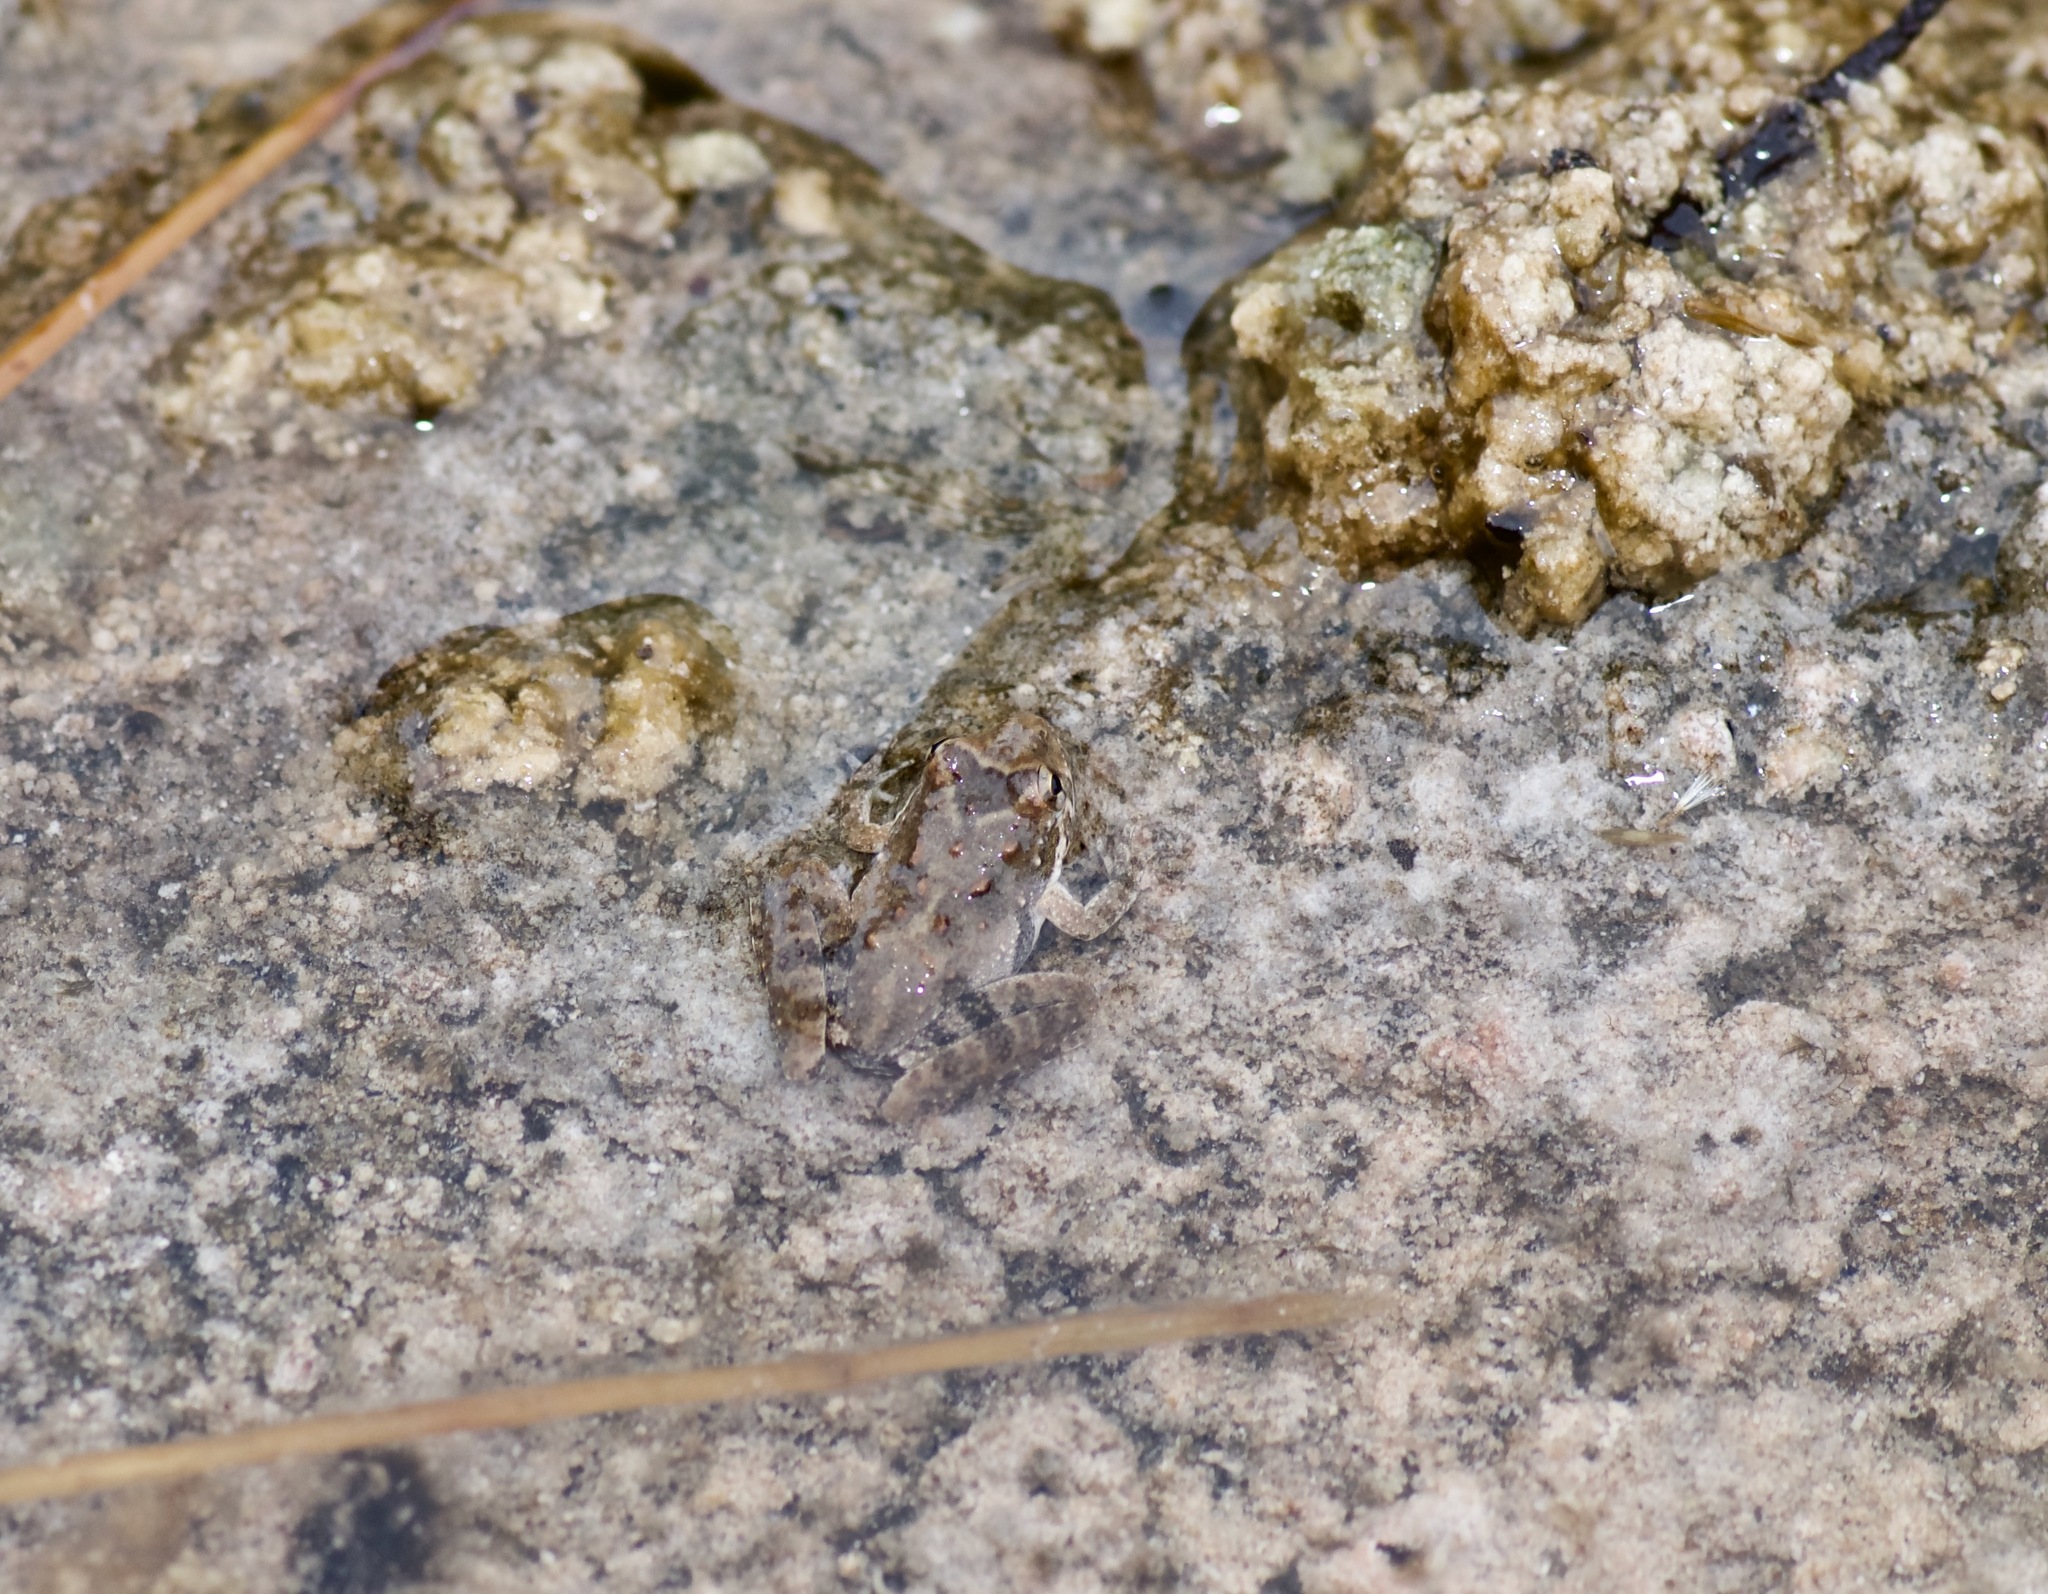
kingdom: Animalia
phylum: Chordata
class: Amphibia
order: Anura
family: Hylidae
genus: Acris
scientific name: Acris blanchardi
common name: Blanchard's cricket frog
